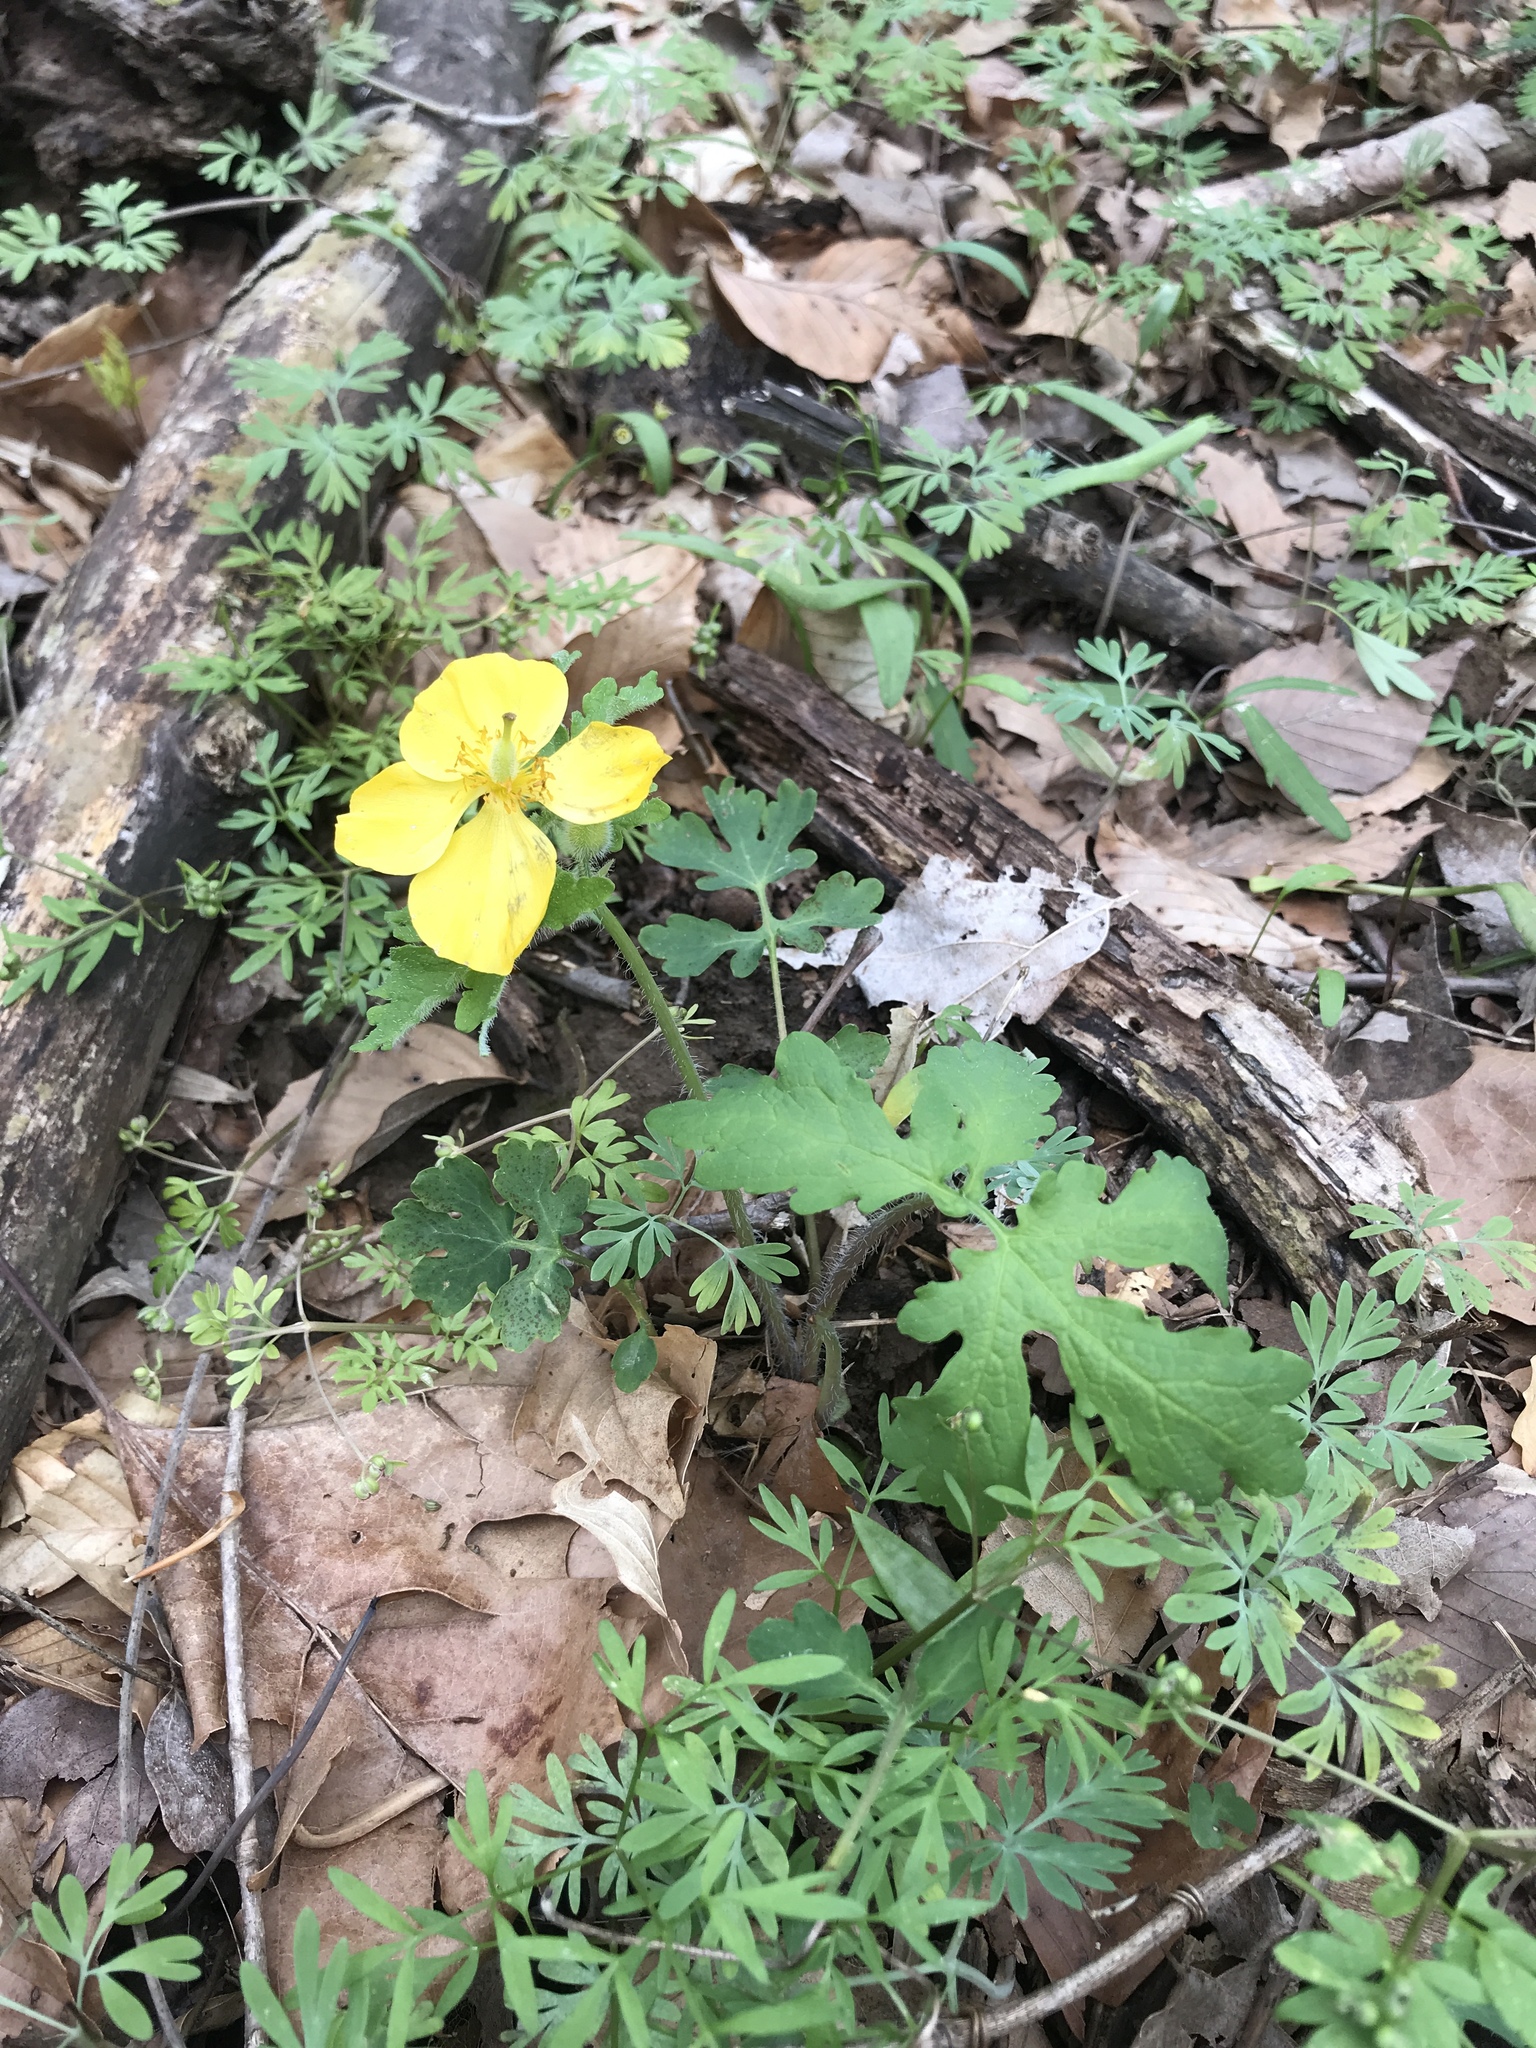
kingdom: Plantae
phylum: Tracheophyta
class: Magnoliopsida
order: Ranunculales
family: Papaveraceae
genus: Stylophorum
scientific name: Stylophorum diphyllum
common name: Celandine poppy
